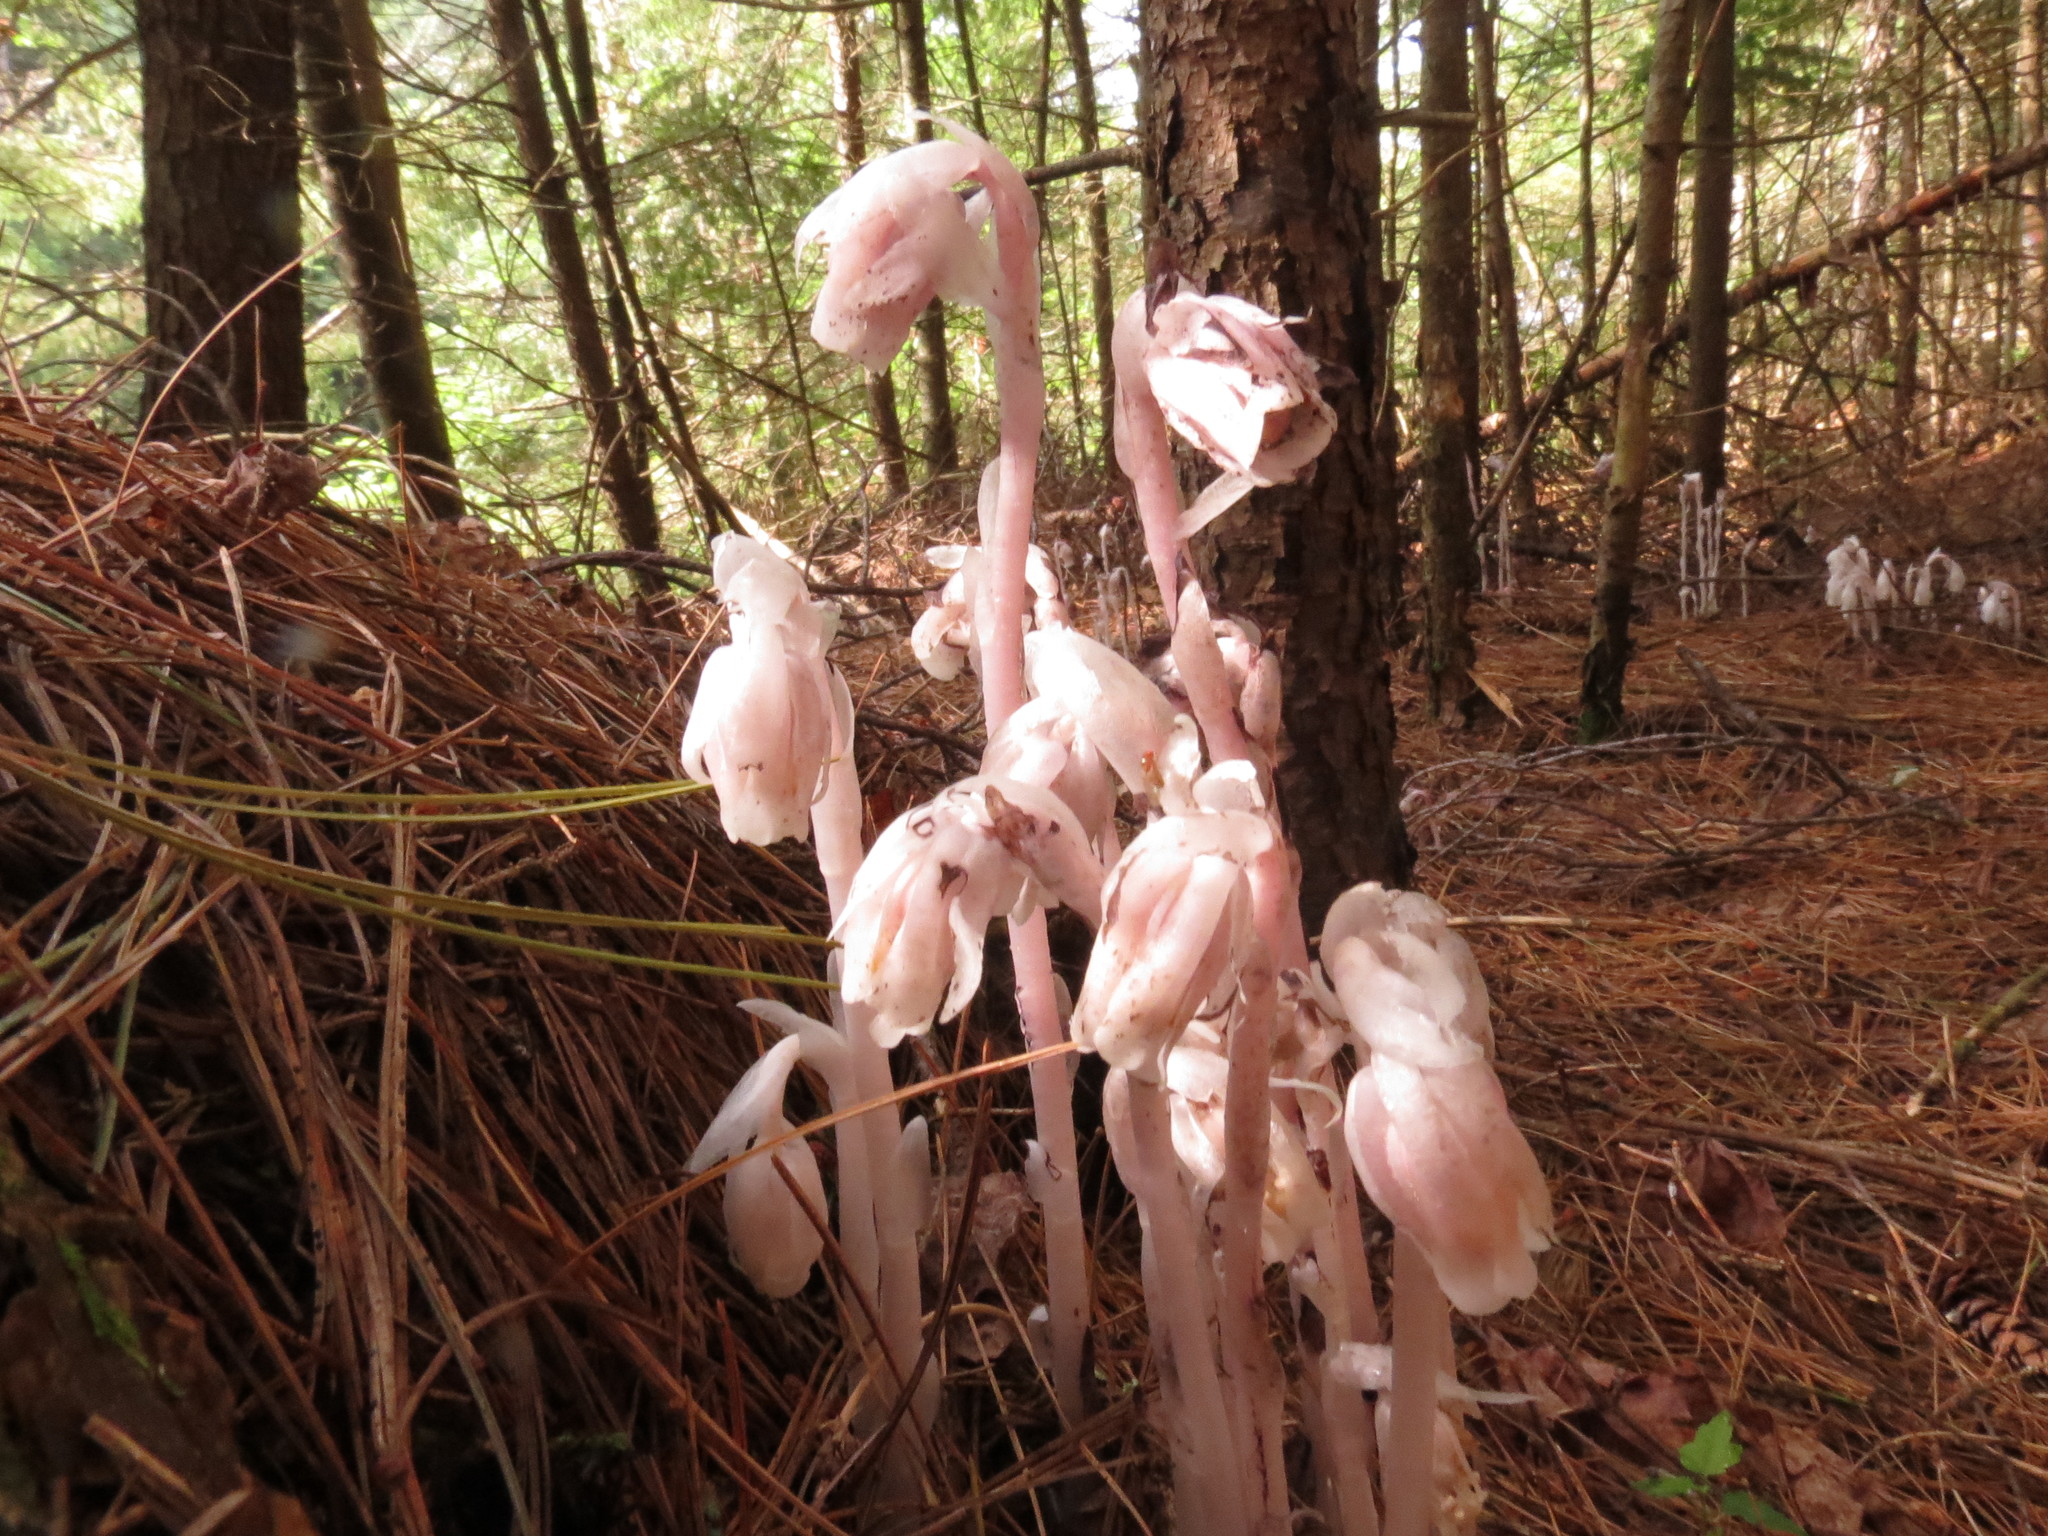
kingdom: Plantae
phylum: Tracheophyta
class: Magnoliopsida
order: Ericales
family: Ericaceae
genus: Monotropa
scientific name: Monotropa uniflora
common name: Convulsion root
